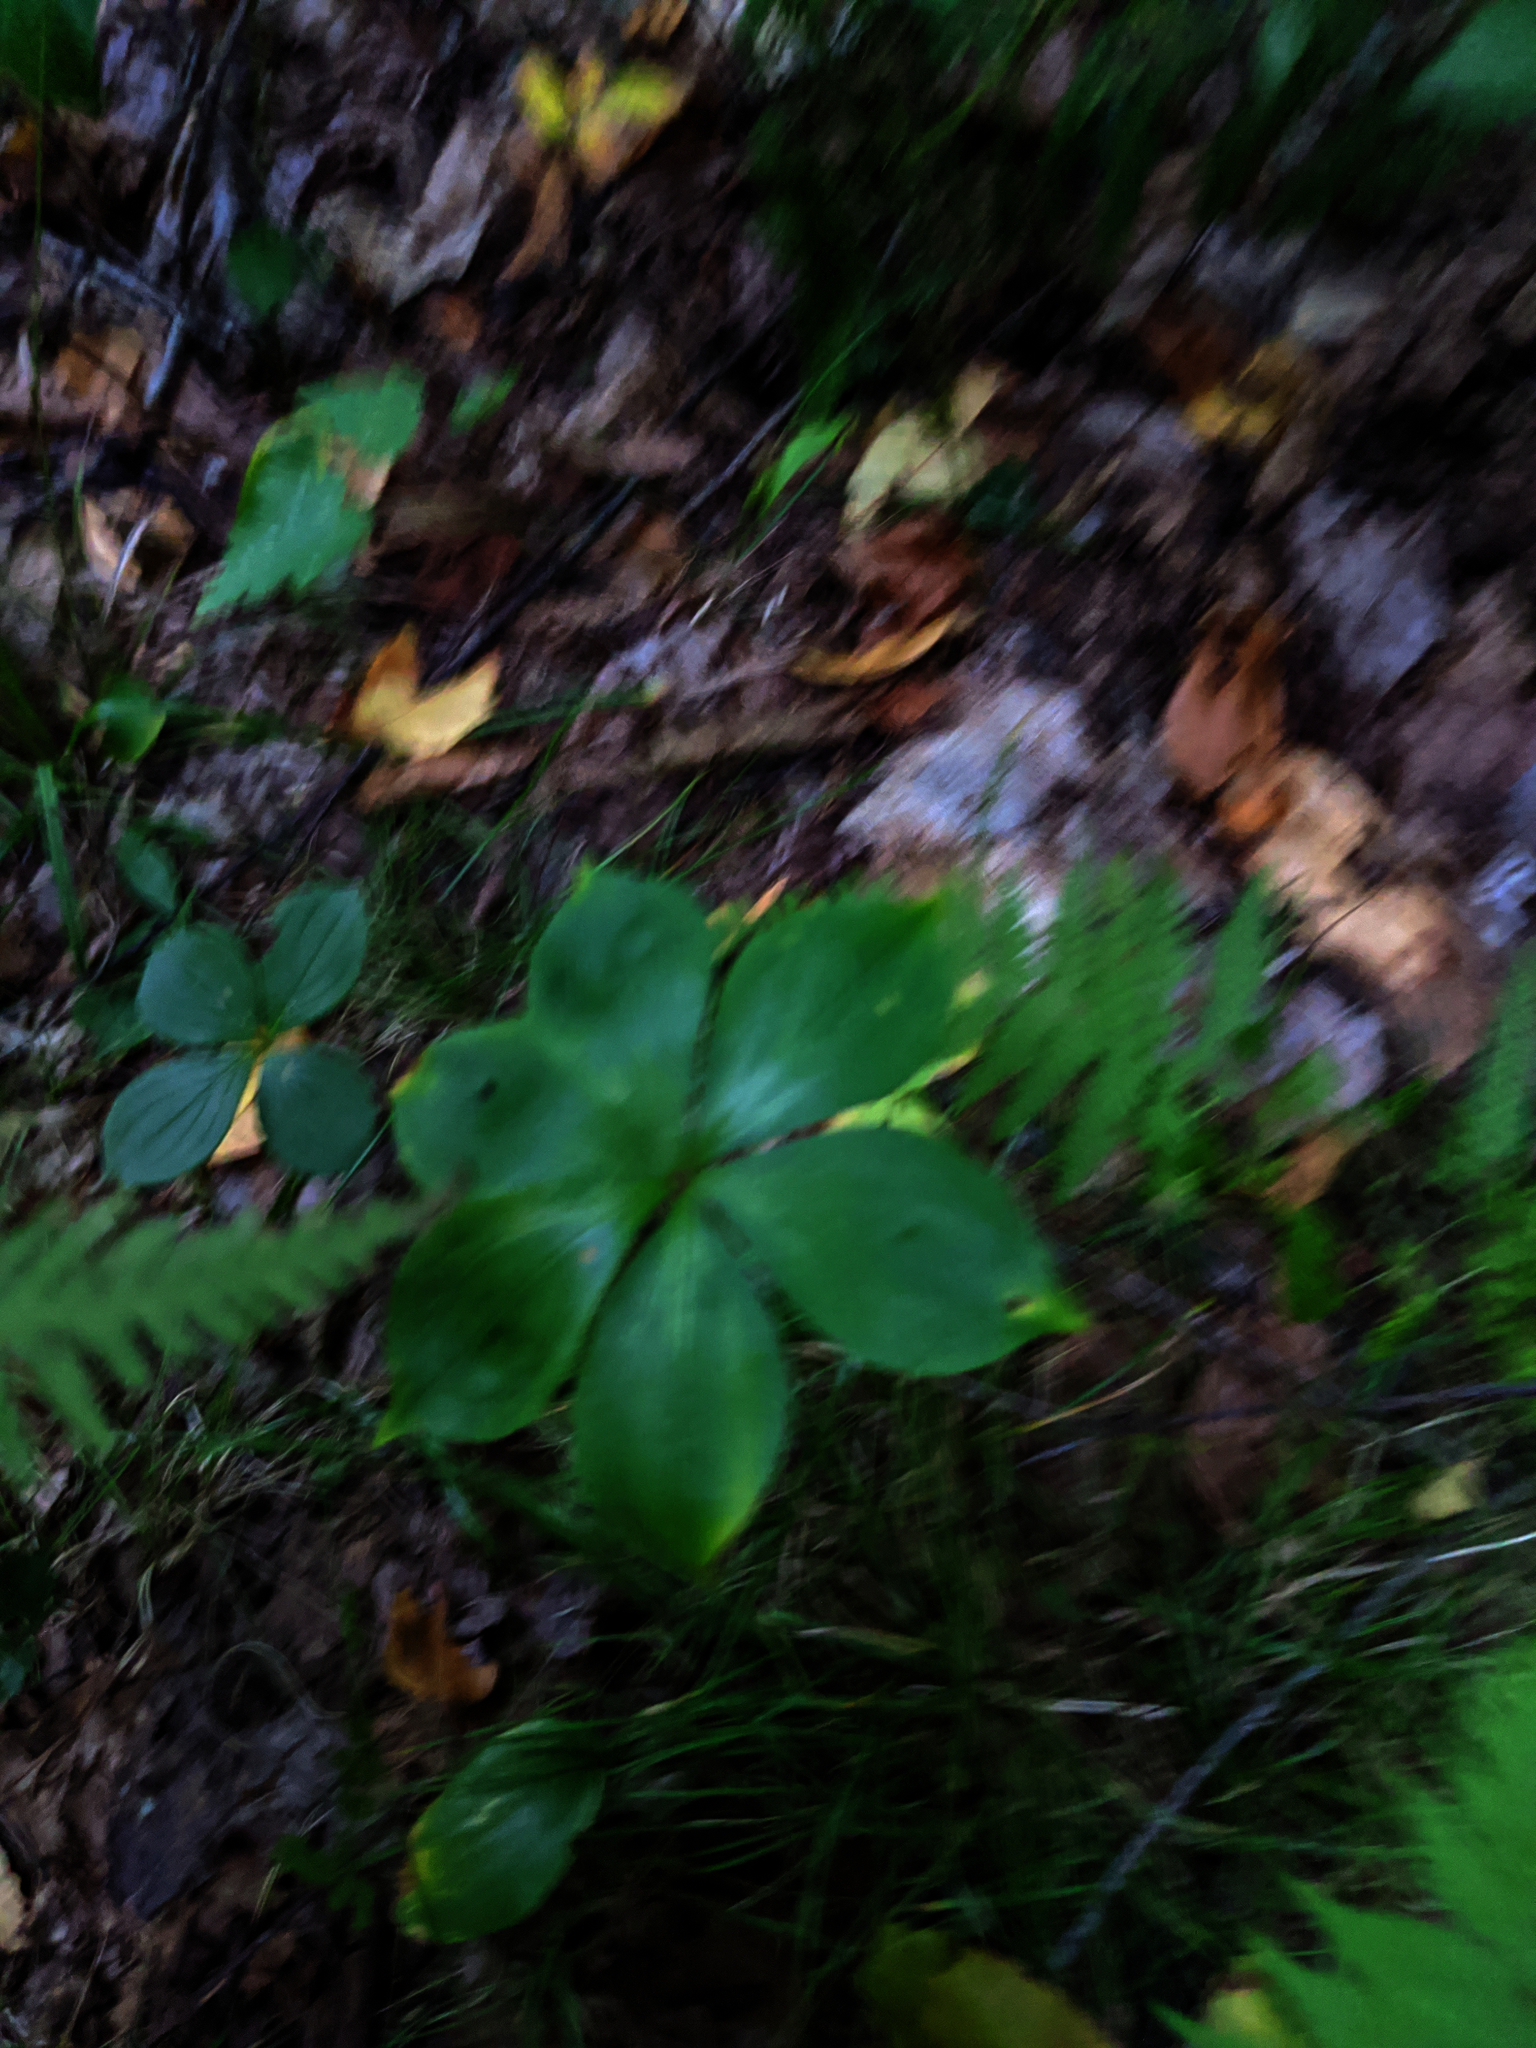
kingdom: Plantae
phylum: Tracheophyta
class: Liliopsida
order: Liliales
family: Liliaceae
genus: Medeola
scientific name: Medeola virginiana
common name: Indian cucumber-root
